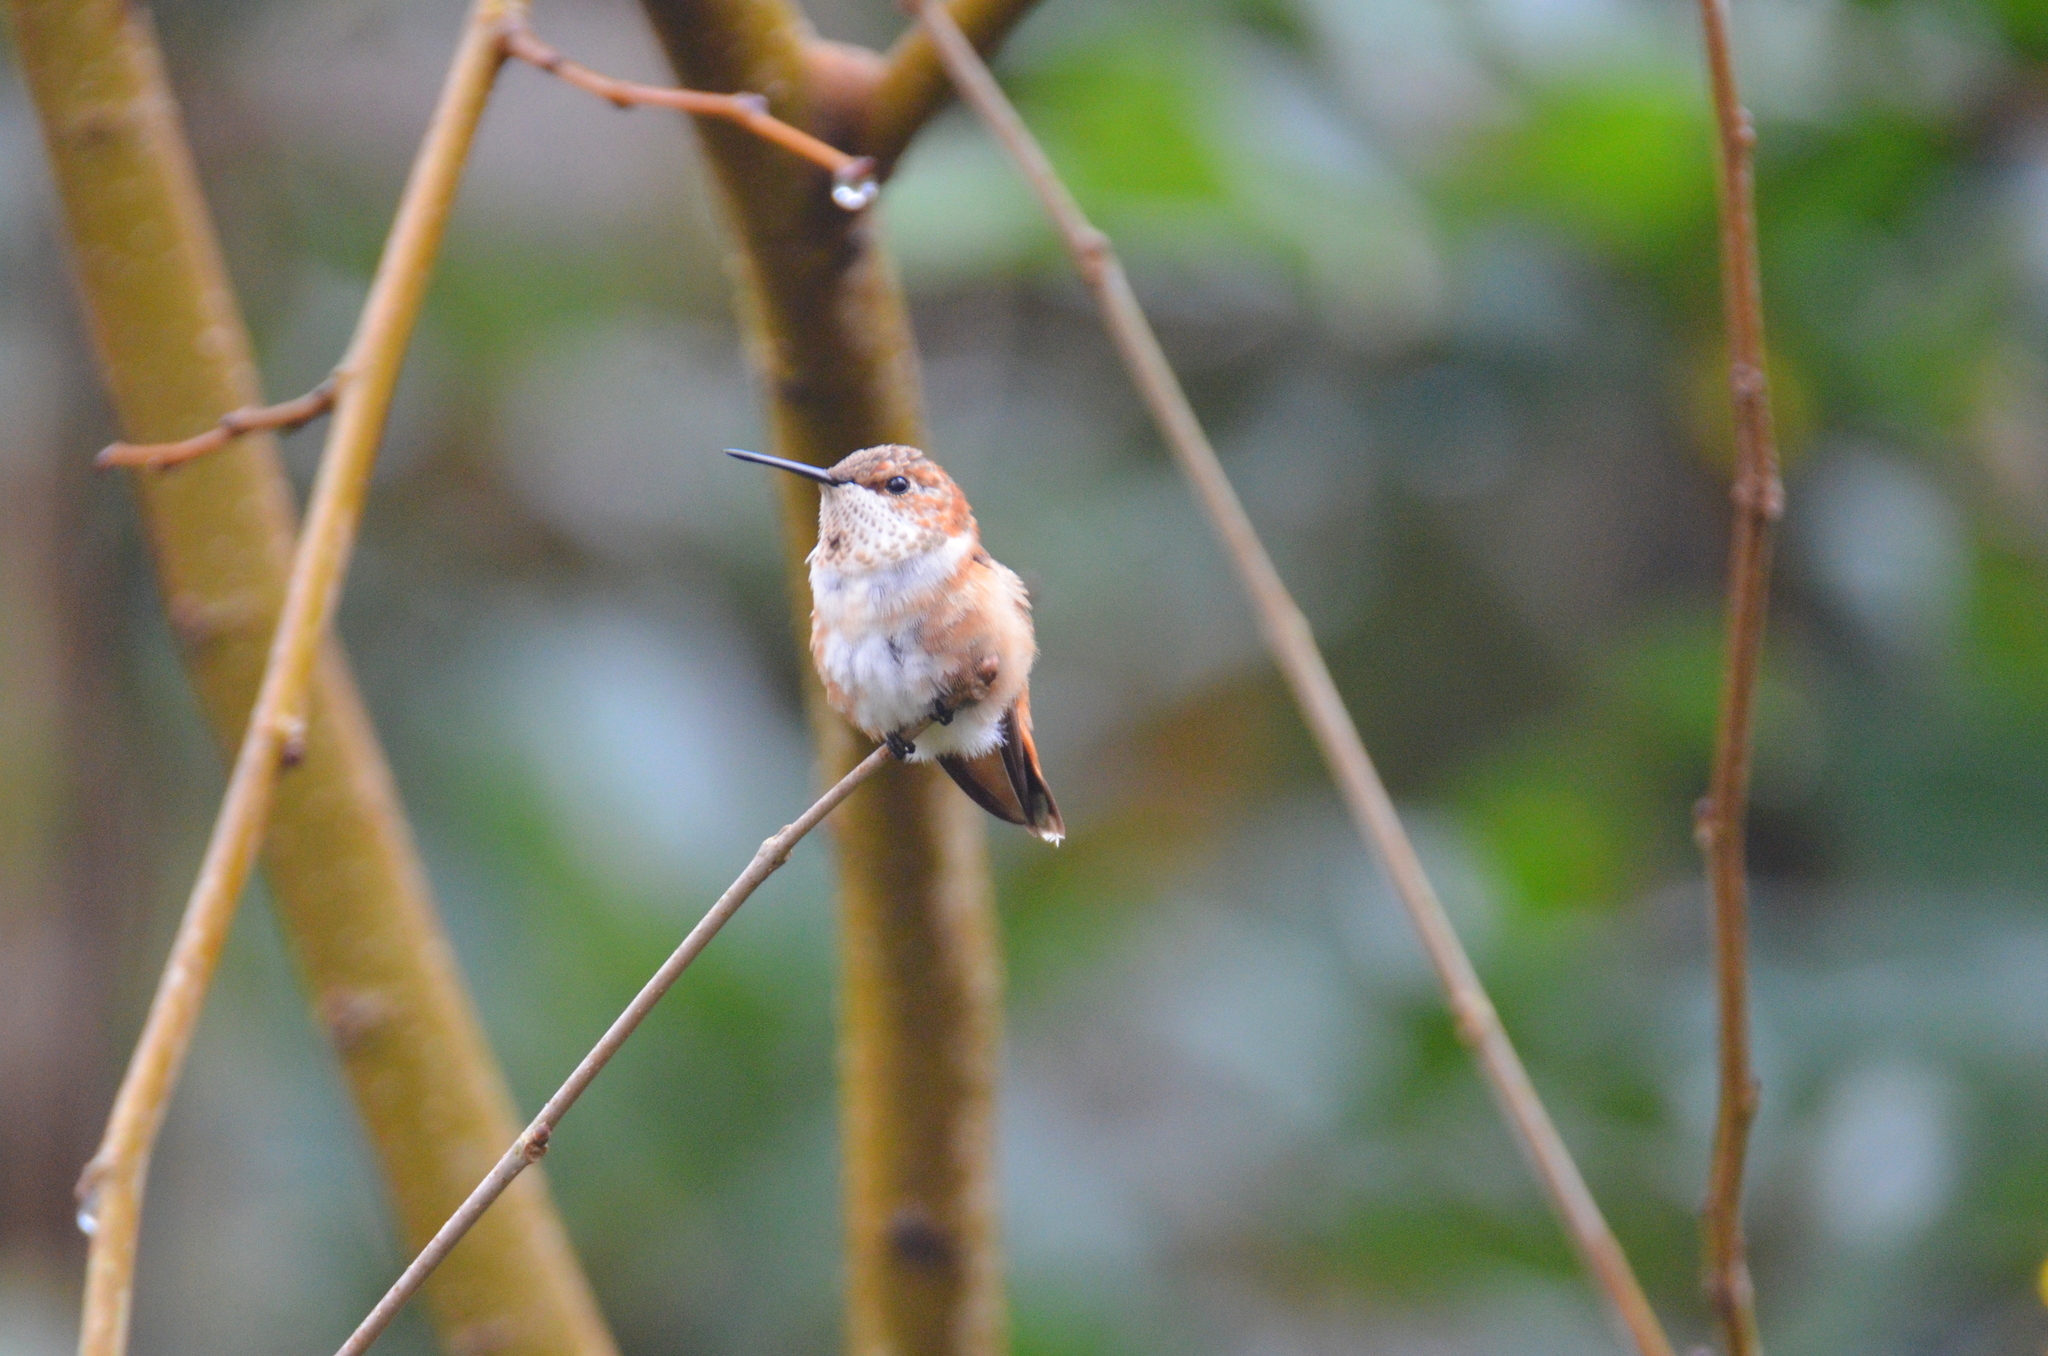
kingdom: Animalia
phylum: Chordata
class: Aves
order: Apodiformes
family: Trochilidae
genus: Selasphorus
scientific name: Selasphorus
